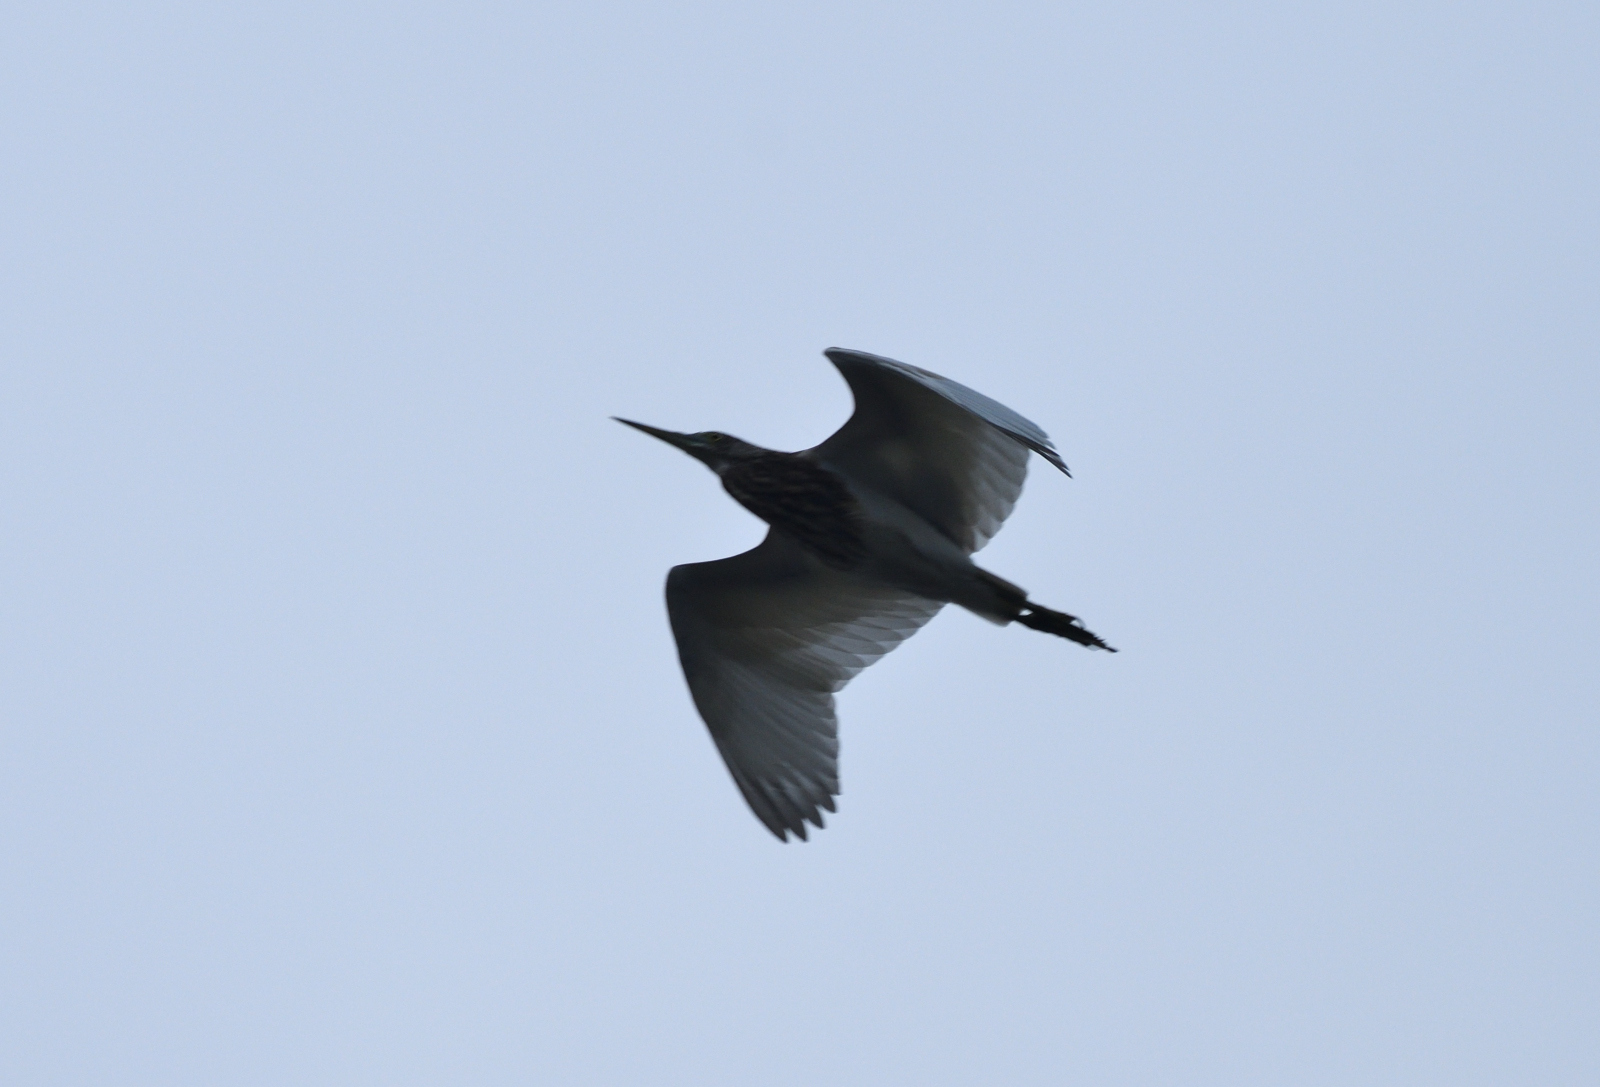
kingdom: Animalia
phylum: Chordata
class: Aves
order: Pelecaniformes
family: Ardeidae
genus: Ardeola
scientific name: Ardeola grayii
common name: Indian pond heron
